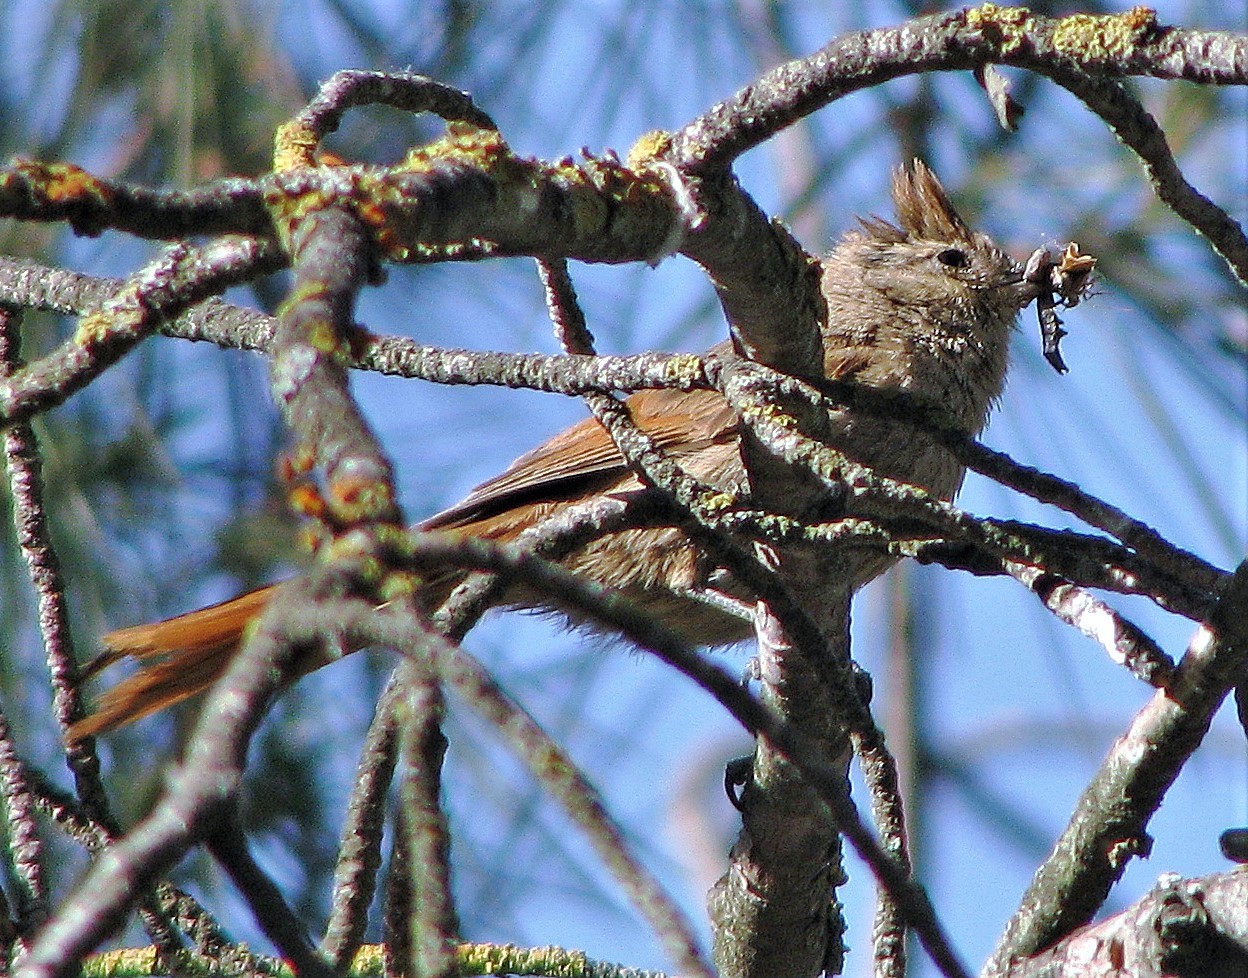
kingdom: Animalia
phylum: Chordata
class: Aves
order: Passeriformes
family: Furnariidae
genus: Leptasthenura
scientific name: Leptasthenura fuliginiceps
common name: Brown-capped tit-spinetail
